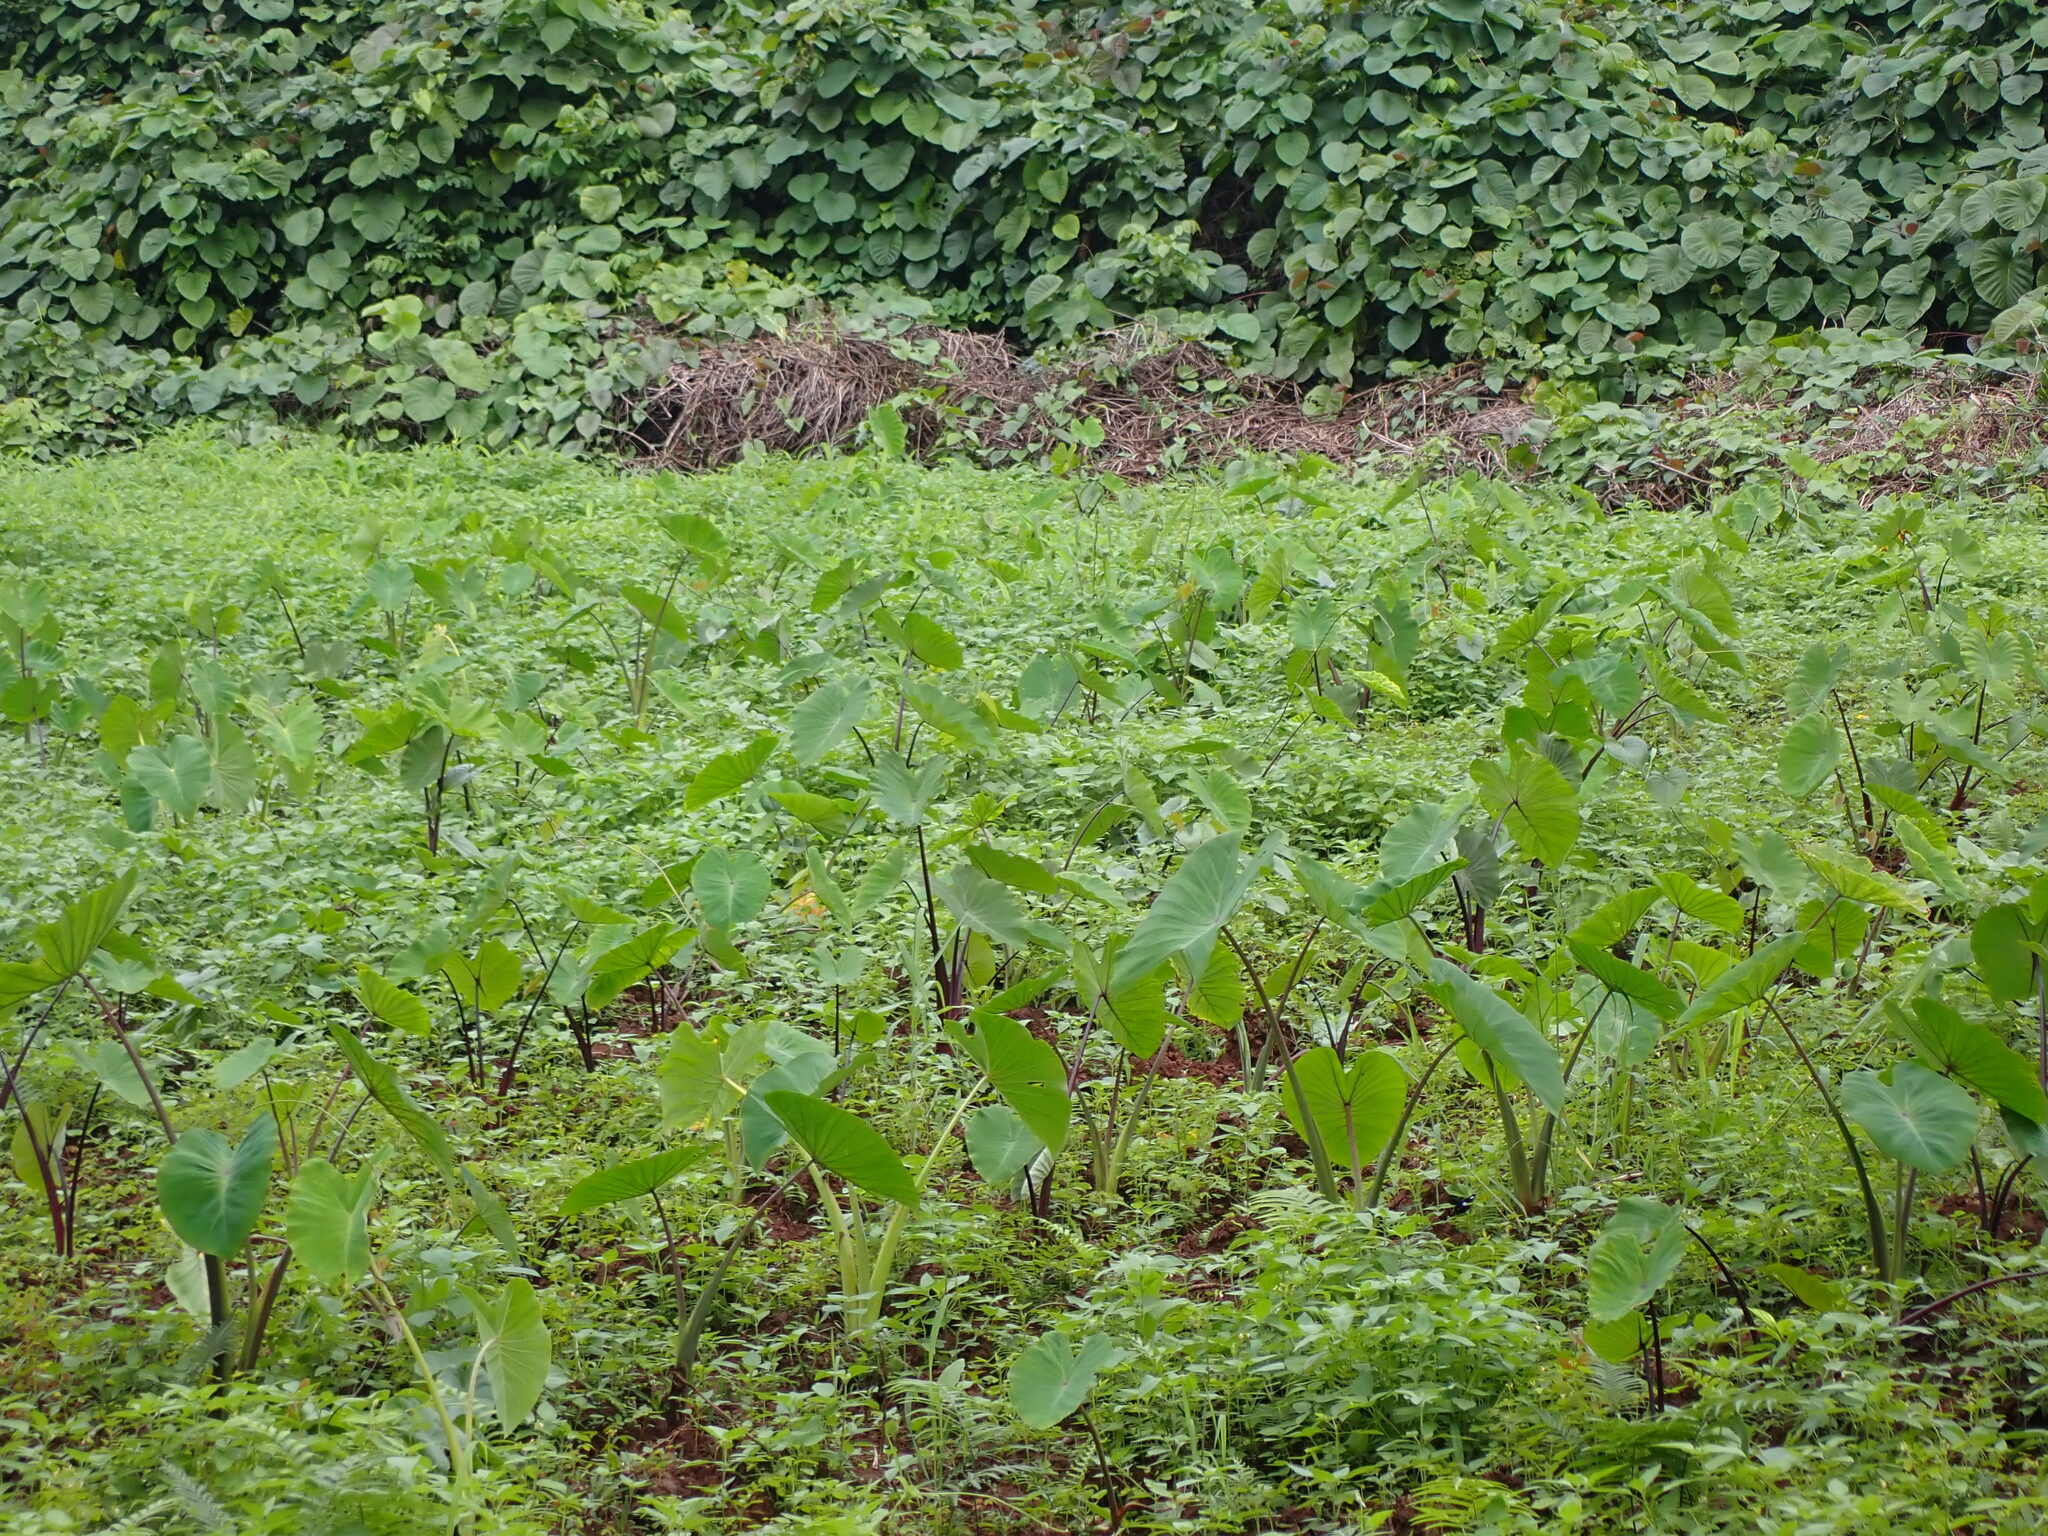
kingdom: Plantae
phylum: Tracheophyta
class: Liliopsida
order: Alismatales
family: Araceae
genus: Colocasia
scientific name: Colocasia esculenta
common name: Taro
